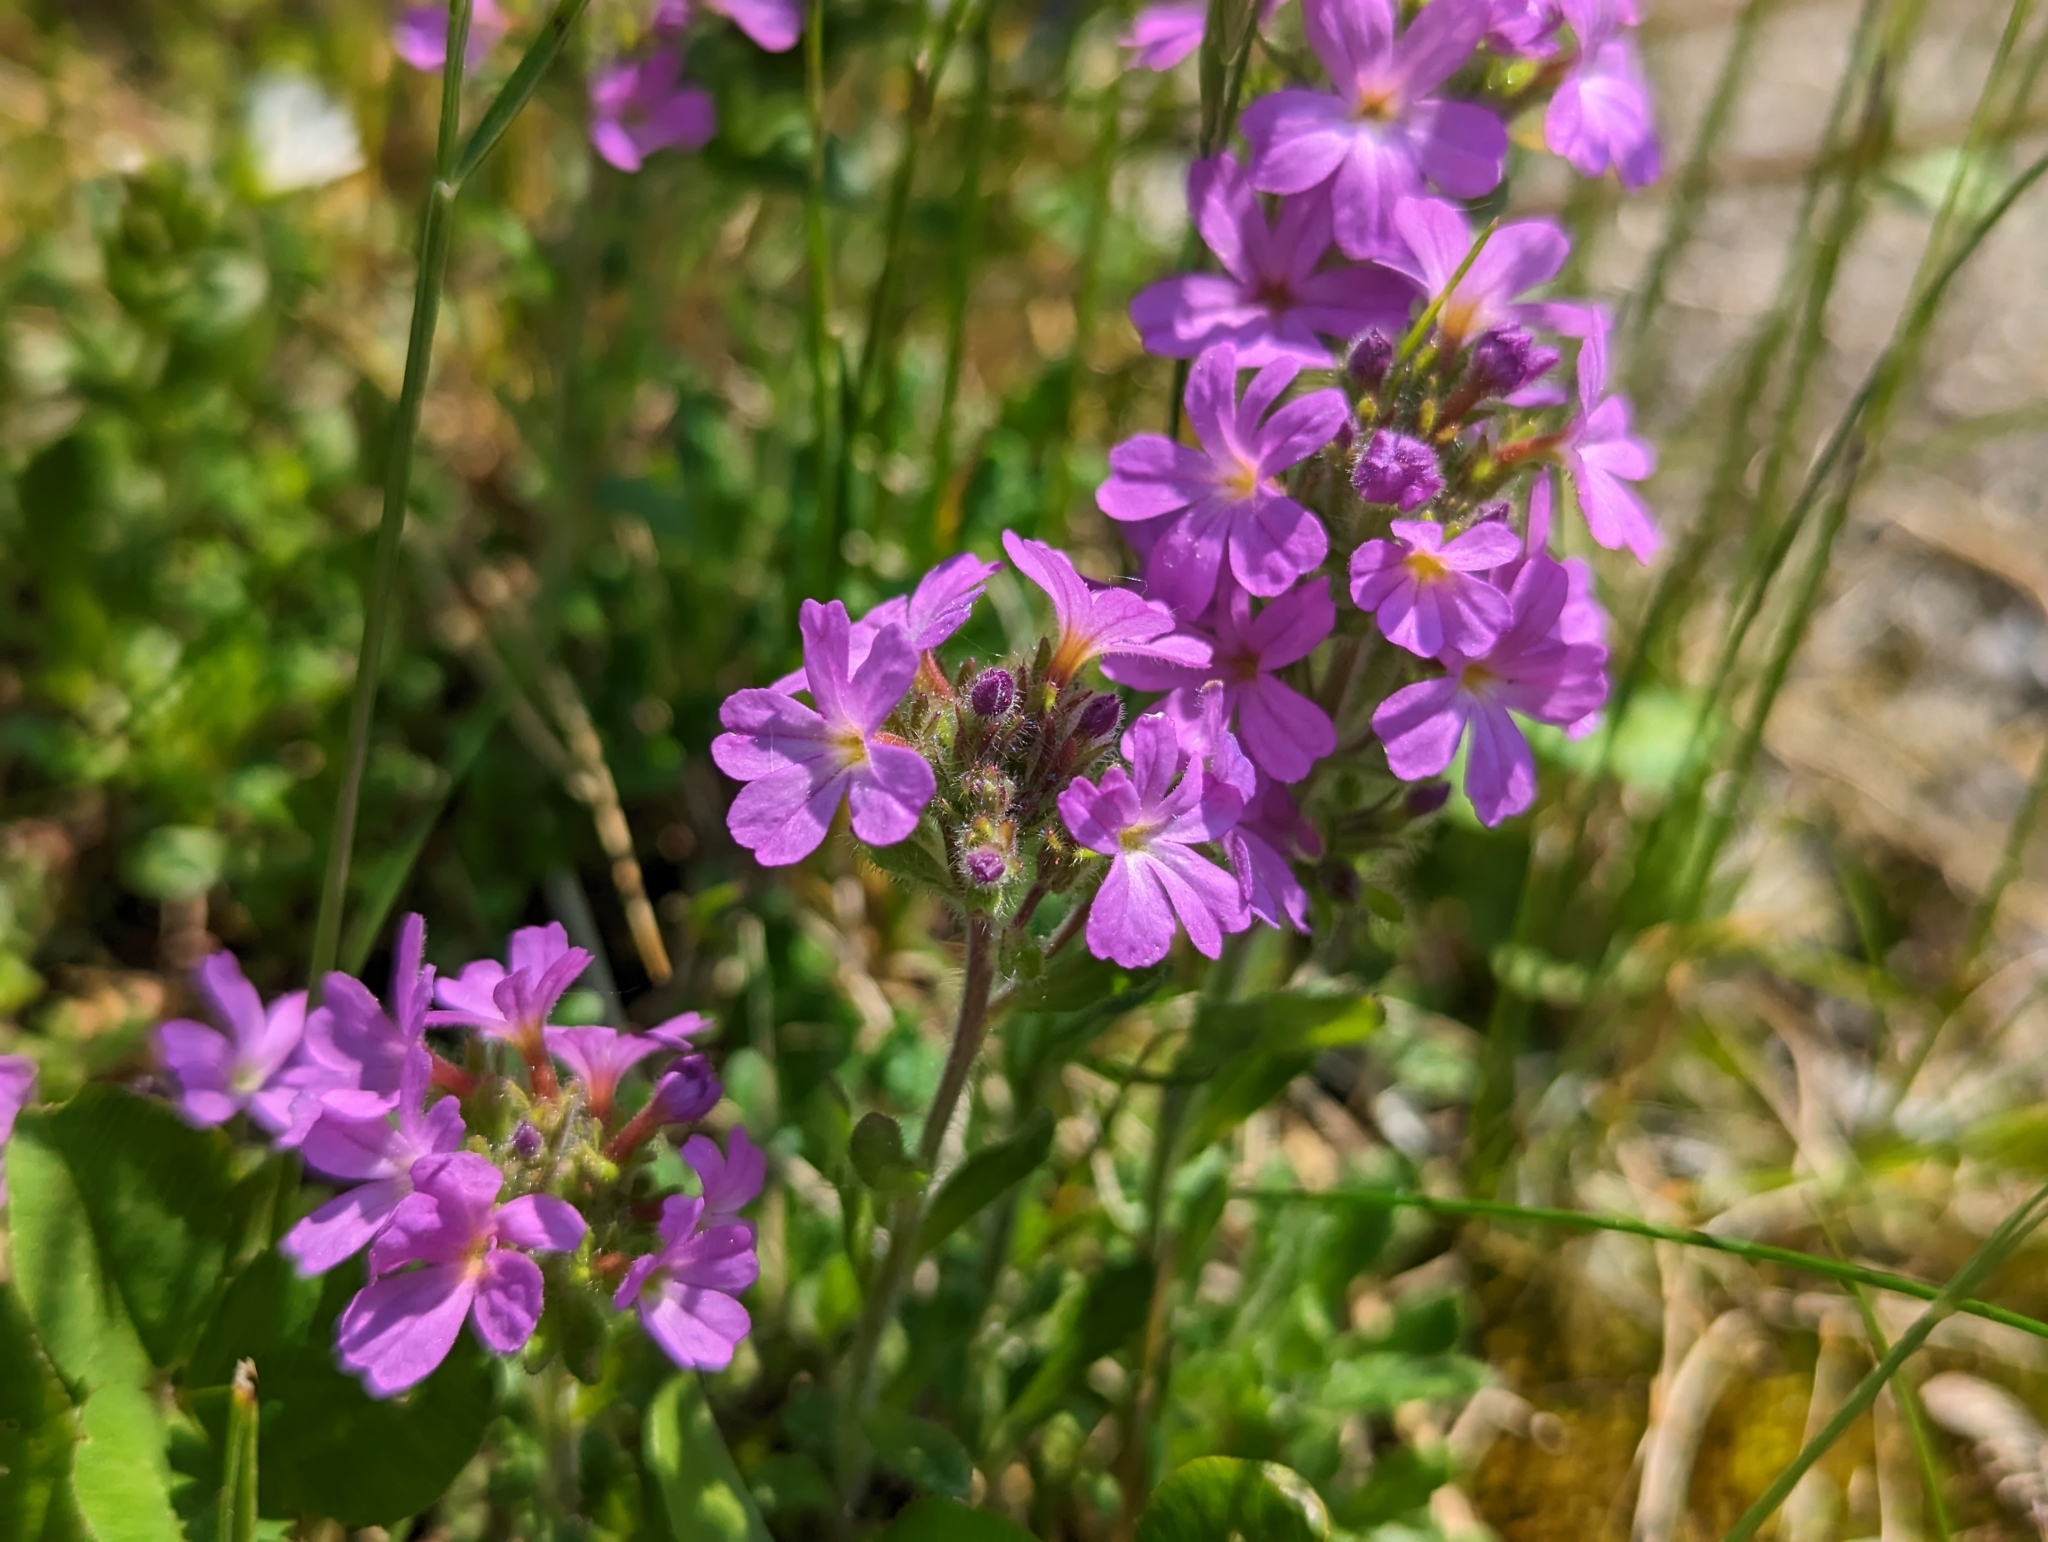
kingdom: Plantae
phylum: Tracheophyta
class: Magnoliopsida
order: Lamiales
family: Plantaginaceae
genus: Erinus
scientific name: Erinus alpinus
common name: Fairy foxglove
